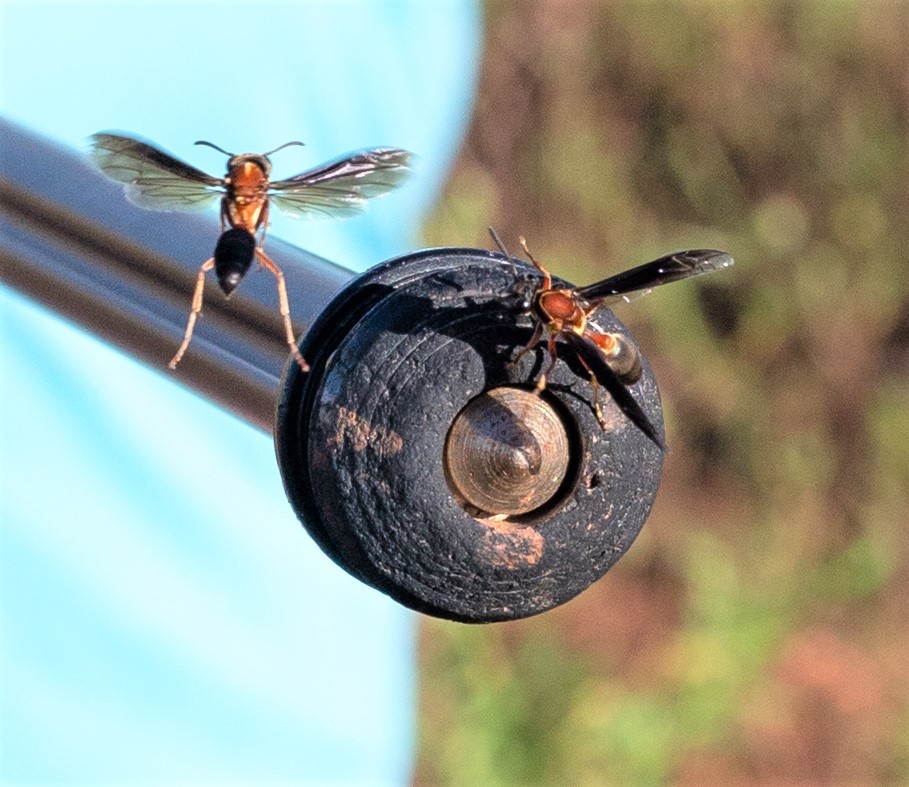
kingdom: Animalia
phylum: Arthropoda
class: Insecta
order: Hymenoptera
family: Eumenidae
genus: Polybia
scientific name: Polybia micans
